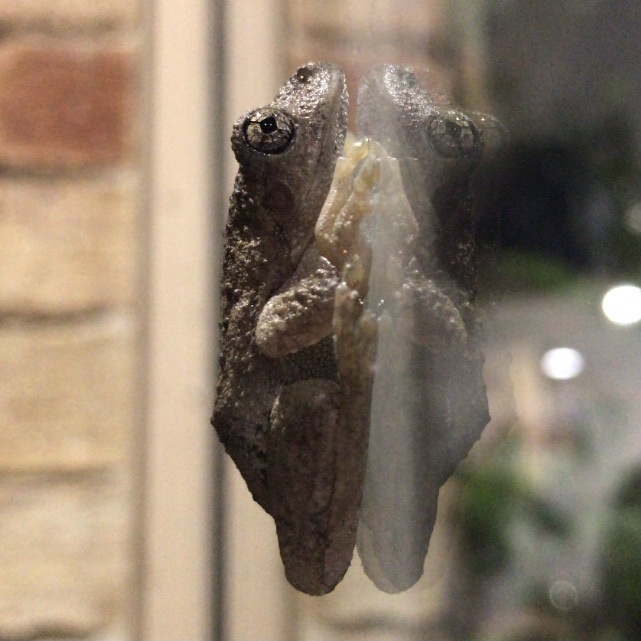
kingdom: Animalia
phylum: Chordata
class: Amphibia
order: Anura
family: Pelodryadidae
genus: Litoria
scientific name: Litoria peronii
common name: Emerald spotted treefrog
